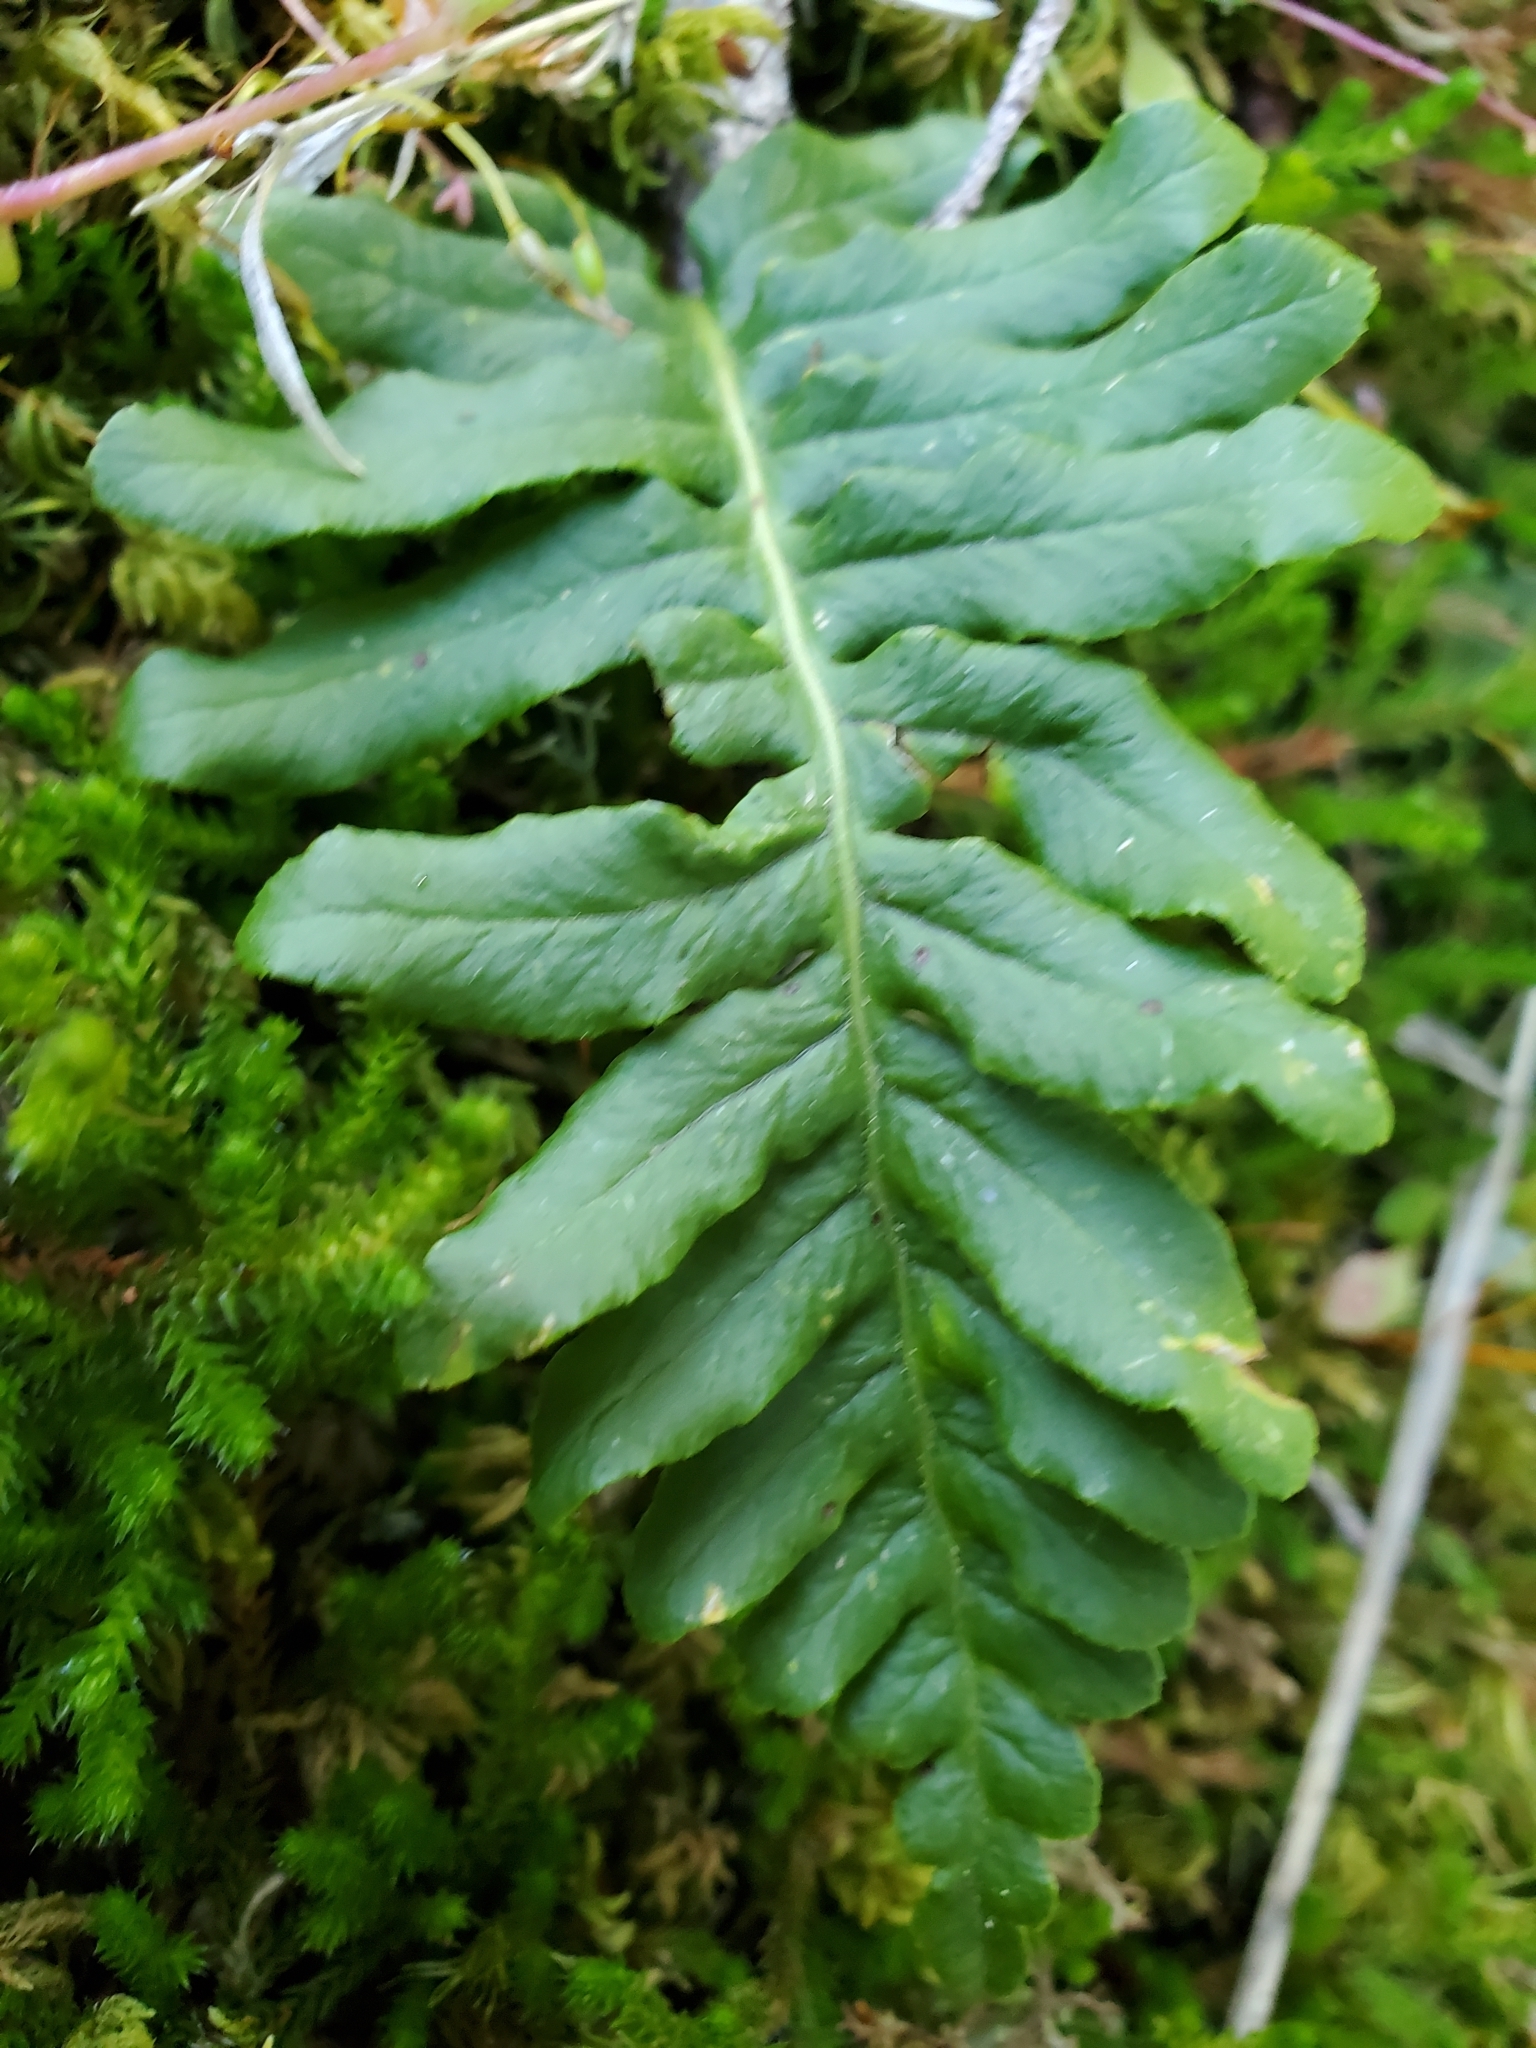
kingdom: Plantae
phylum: Tracheophyta
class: Polypodiopsida
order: Polypodiales
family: Polypodiaceae
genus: Polypodium
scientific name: Polypodium glycyrrhiza
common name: Licorice fern
